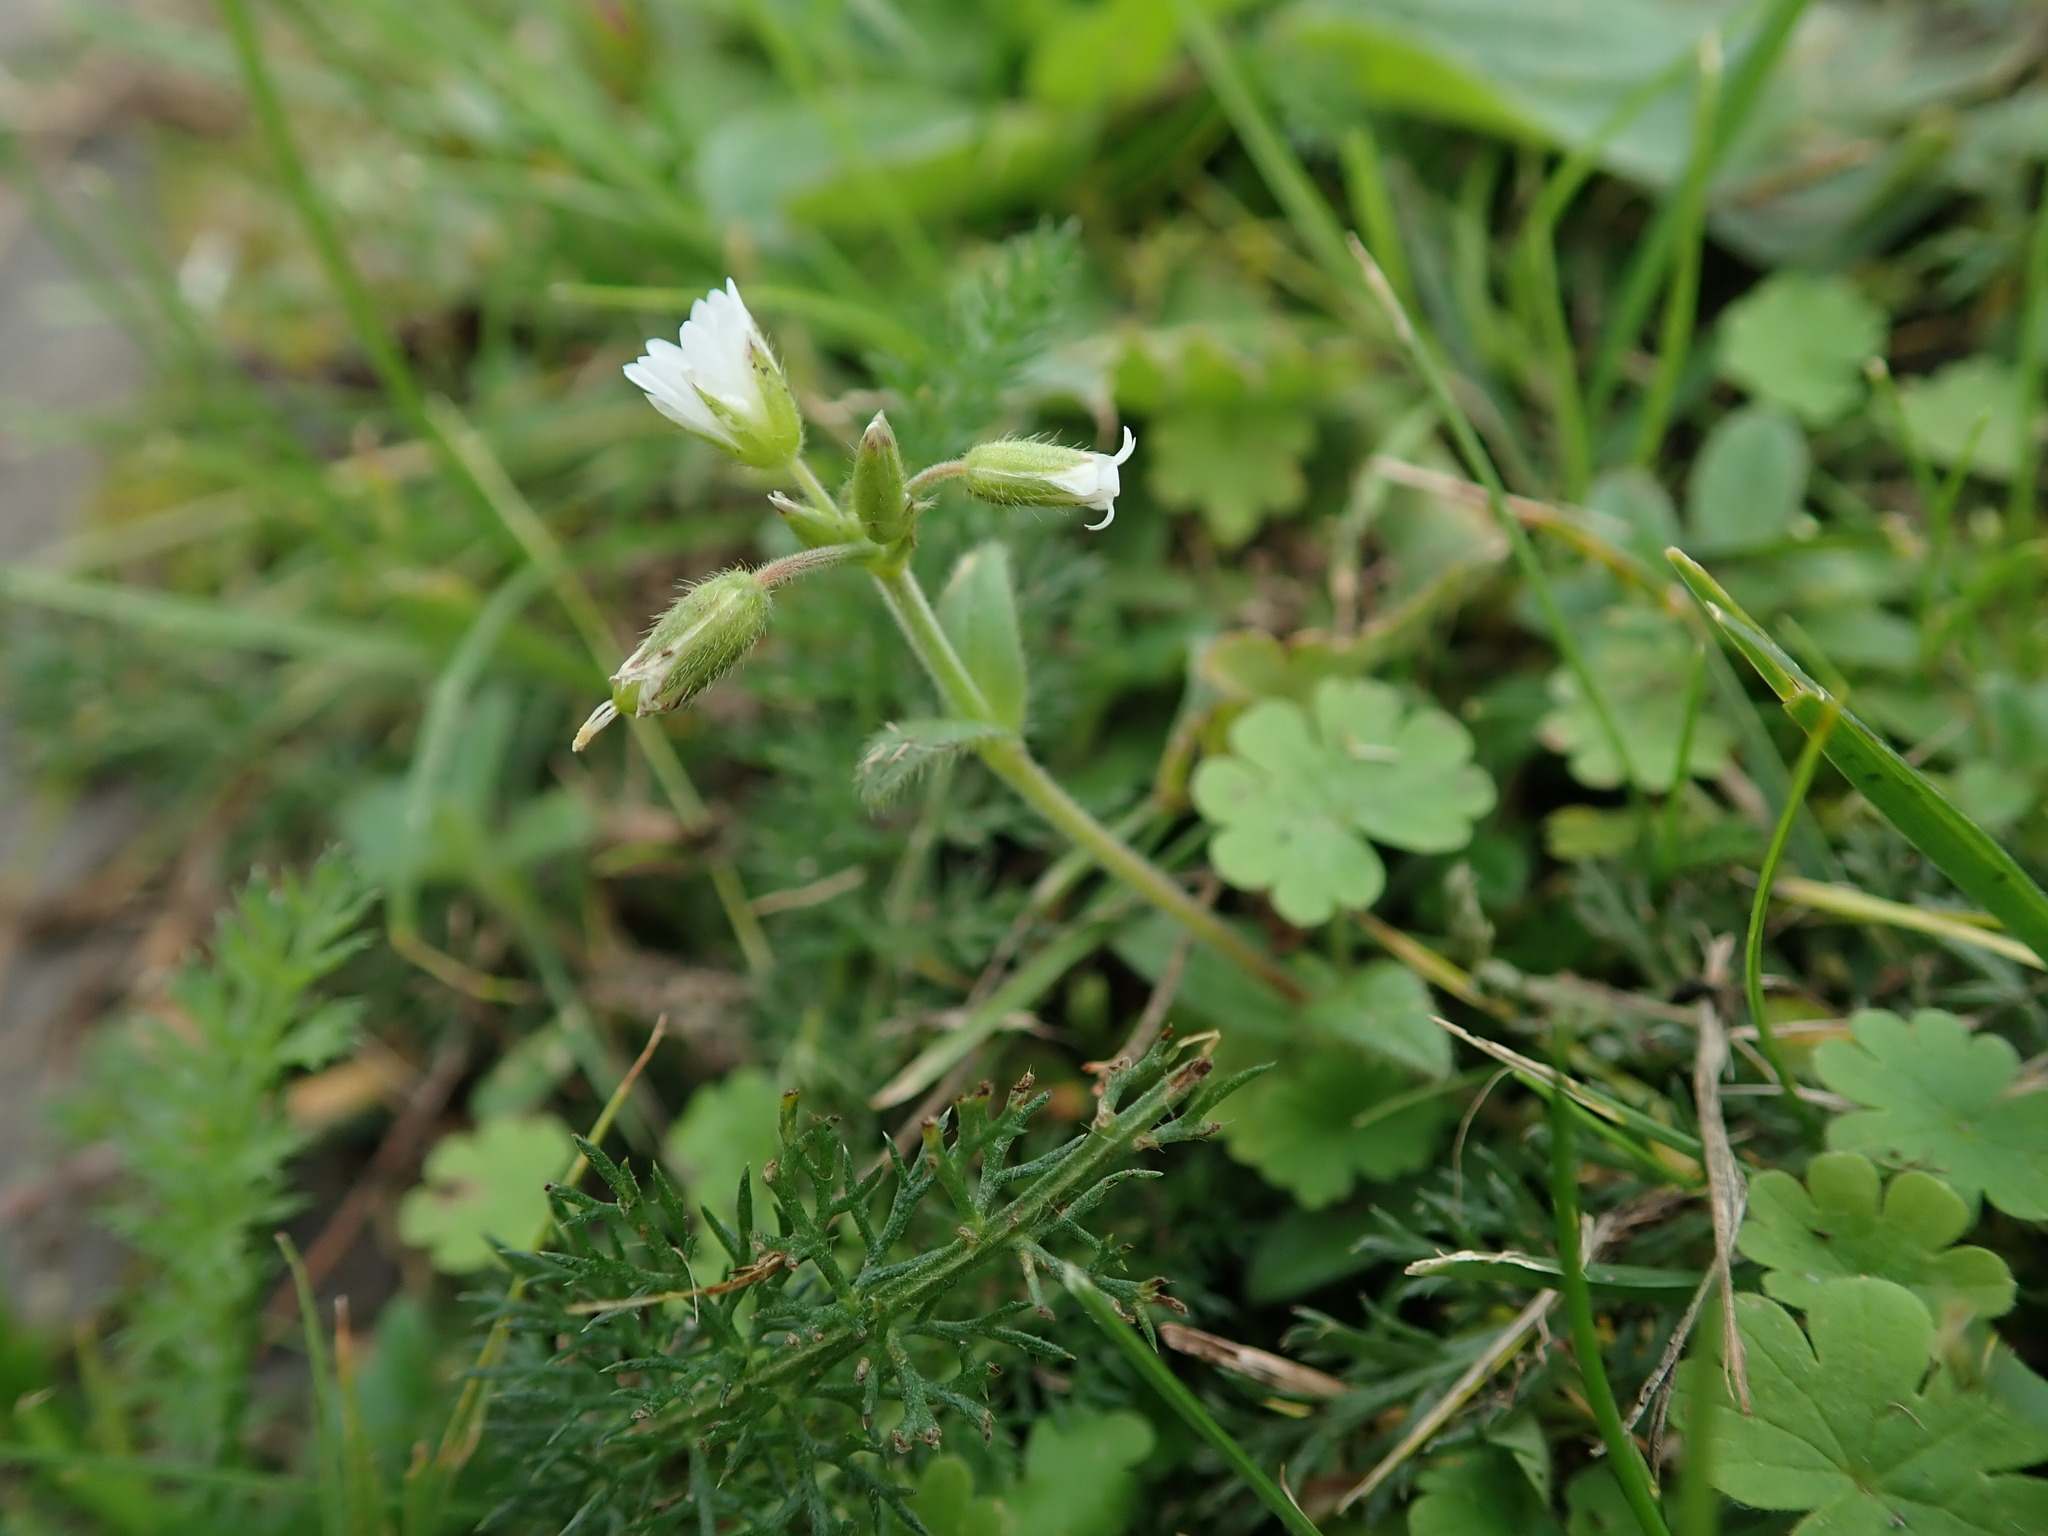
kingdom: Plantae
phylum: Tracheophyta
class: Magnoliopsida
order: Caryophyllales
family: Caryophyllaceae
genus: Cerastium
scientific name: Cerastium fontanum
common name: Common mouse-ear
